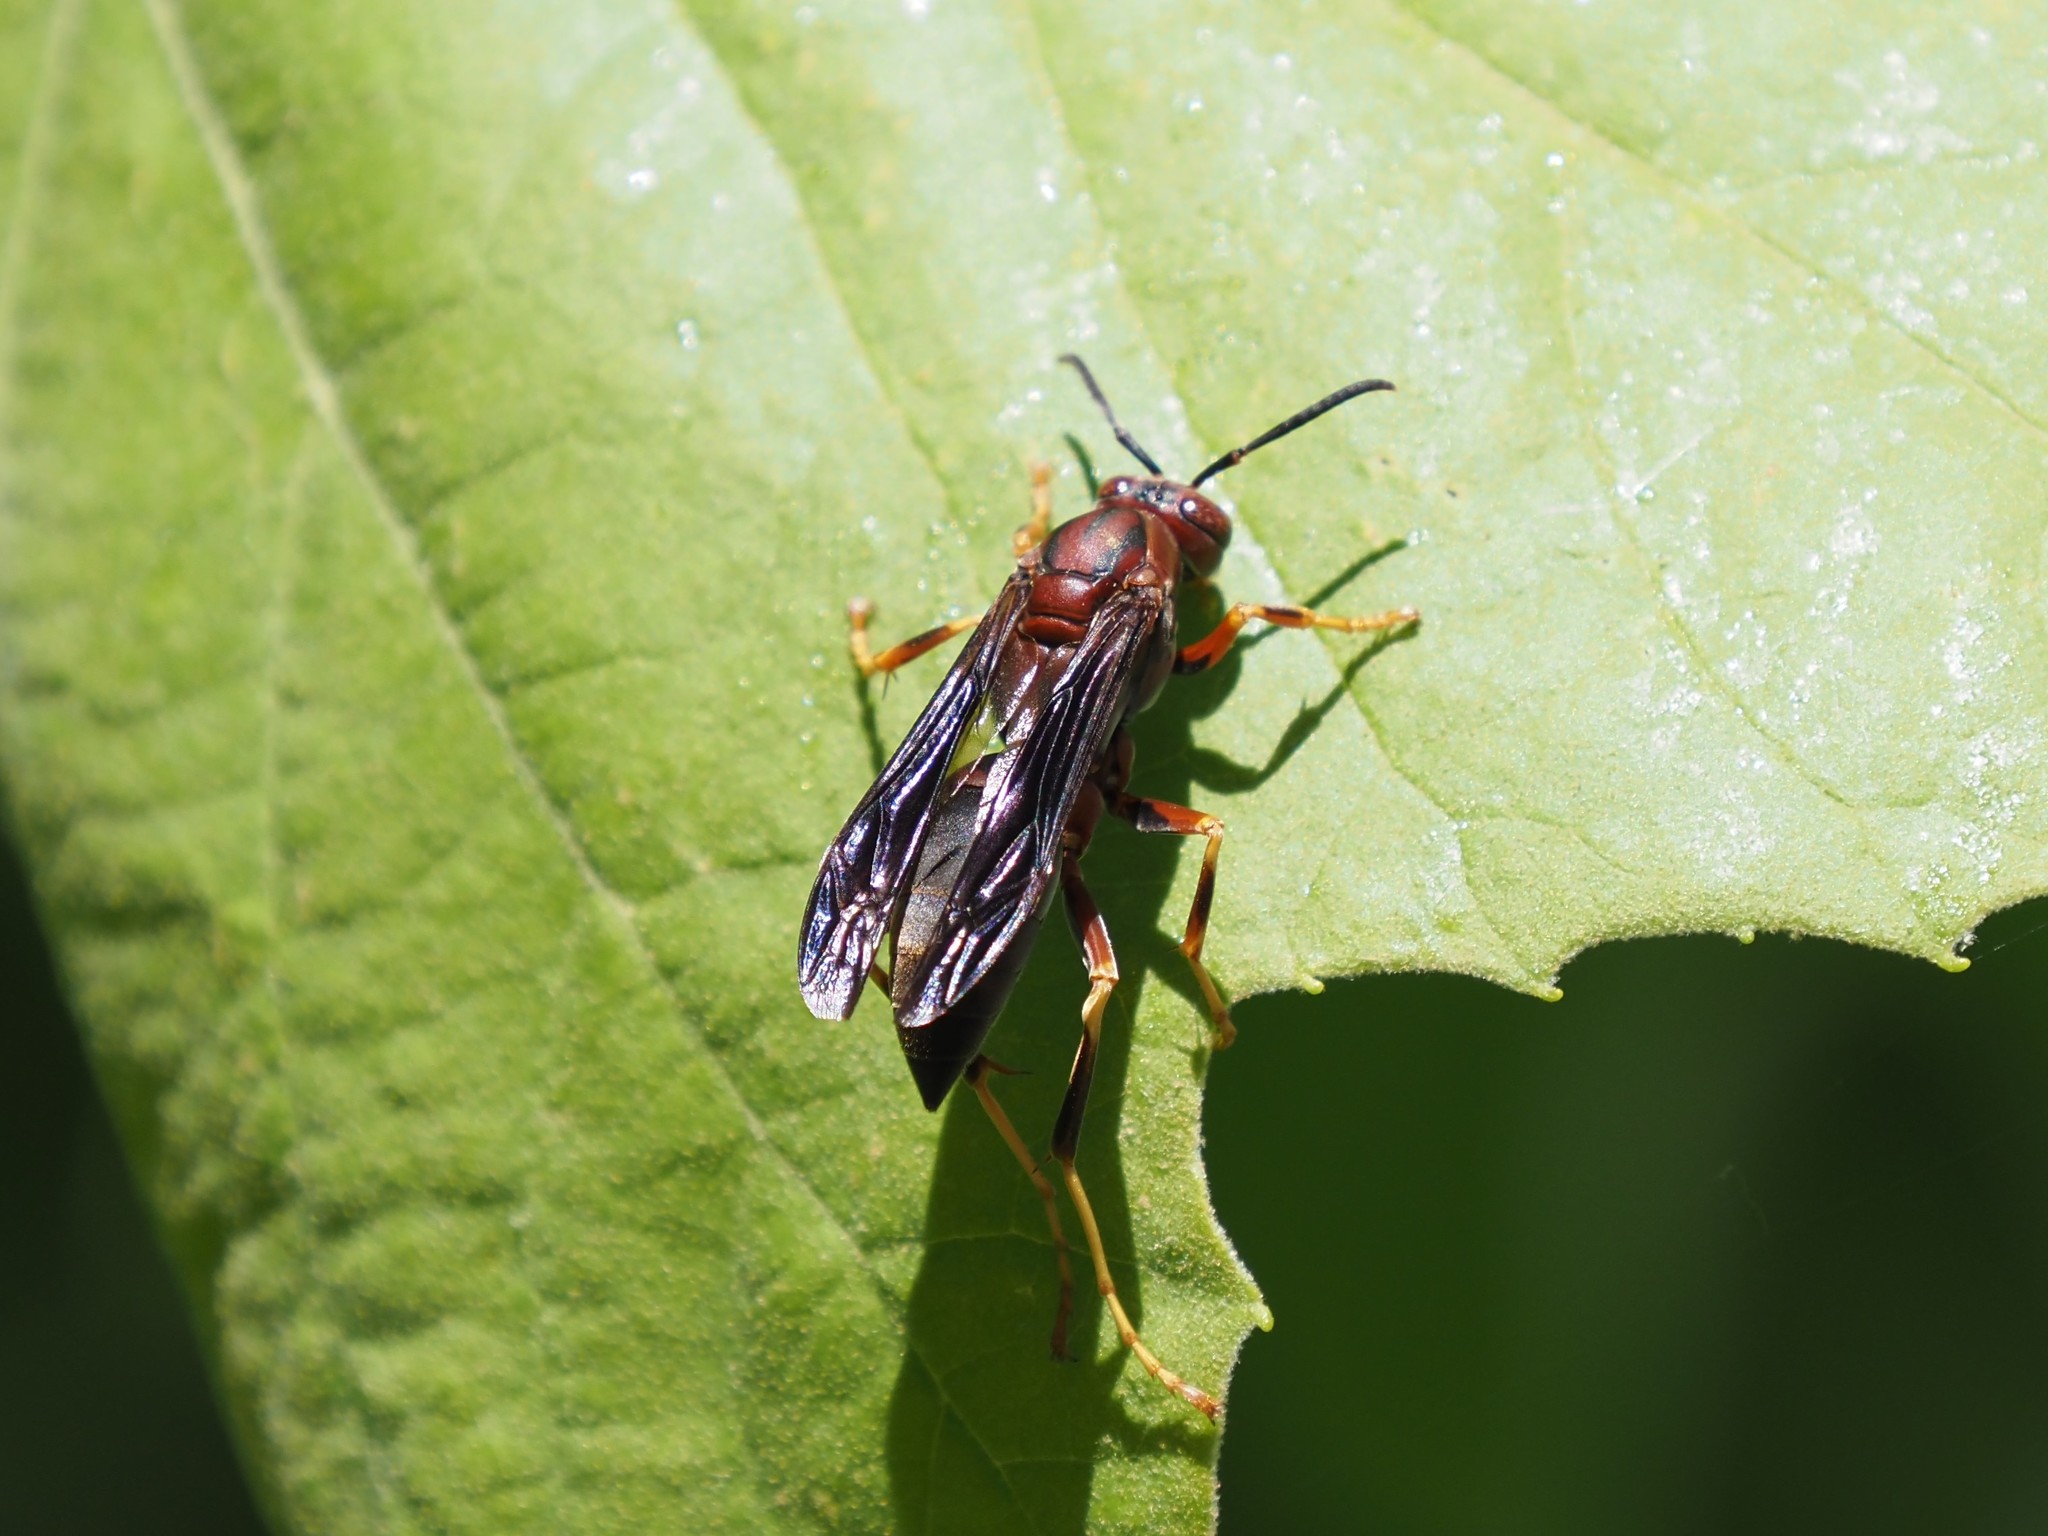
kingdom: Animalia
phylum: Arthropoda
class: Insecta
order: Hymenoptera
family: Eumenidae
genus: Polistes
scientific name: Polistes metricus
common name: Metric paper wasp
